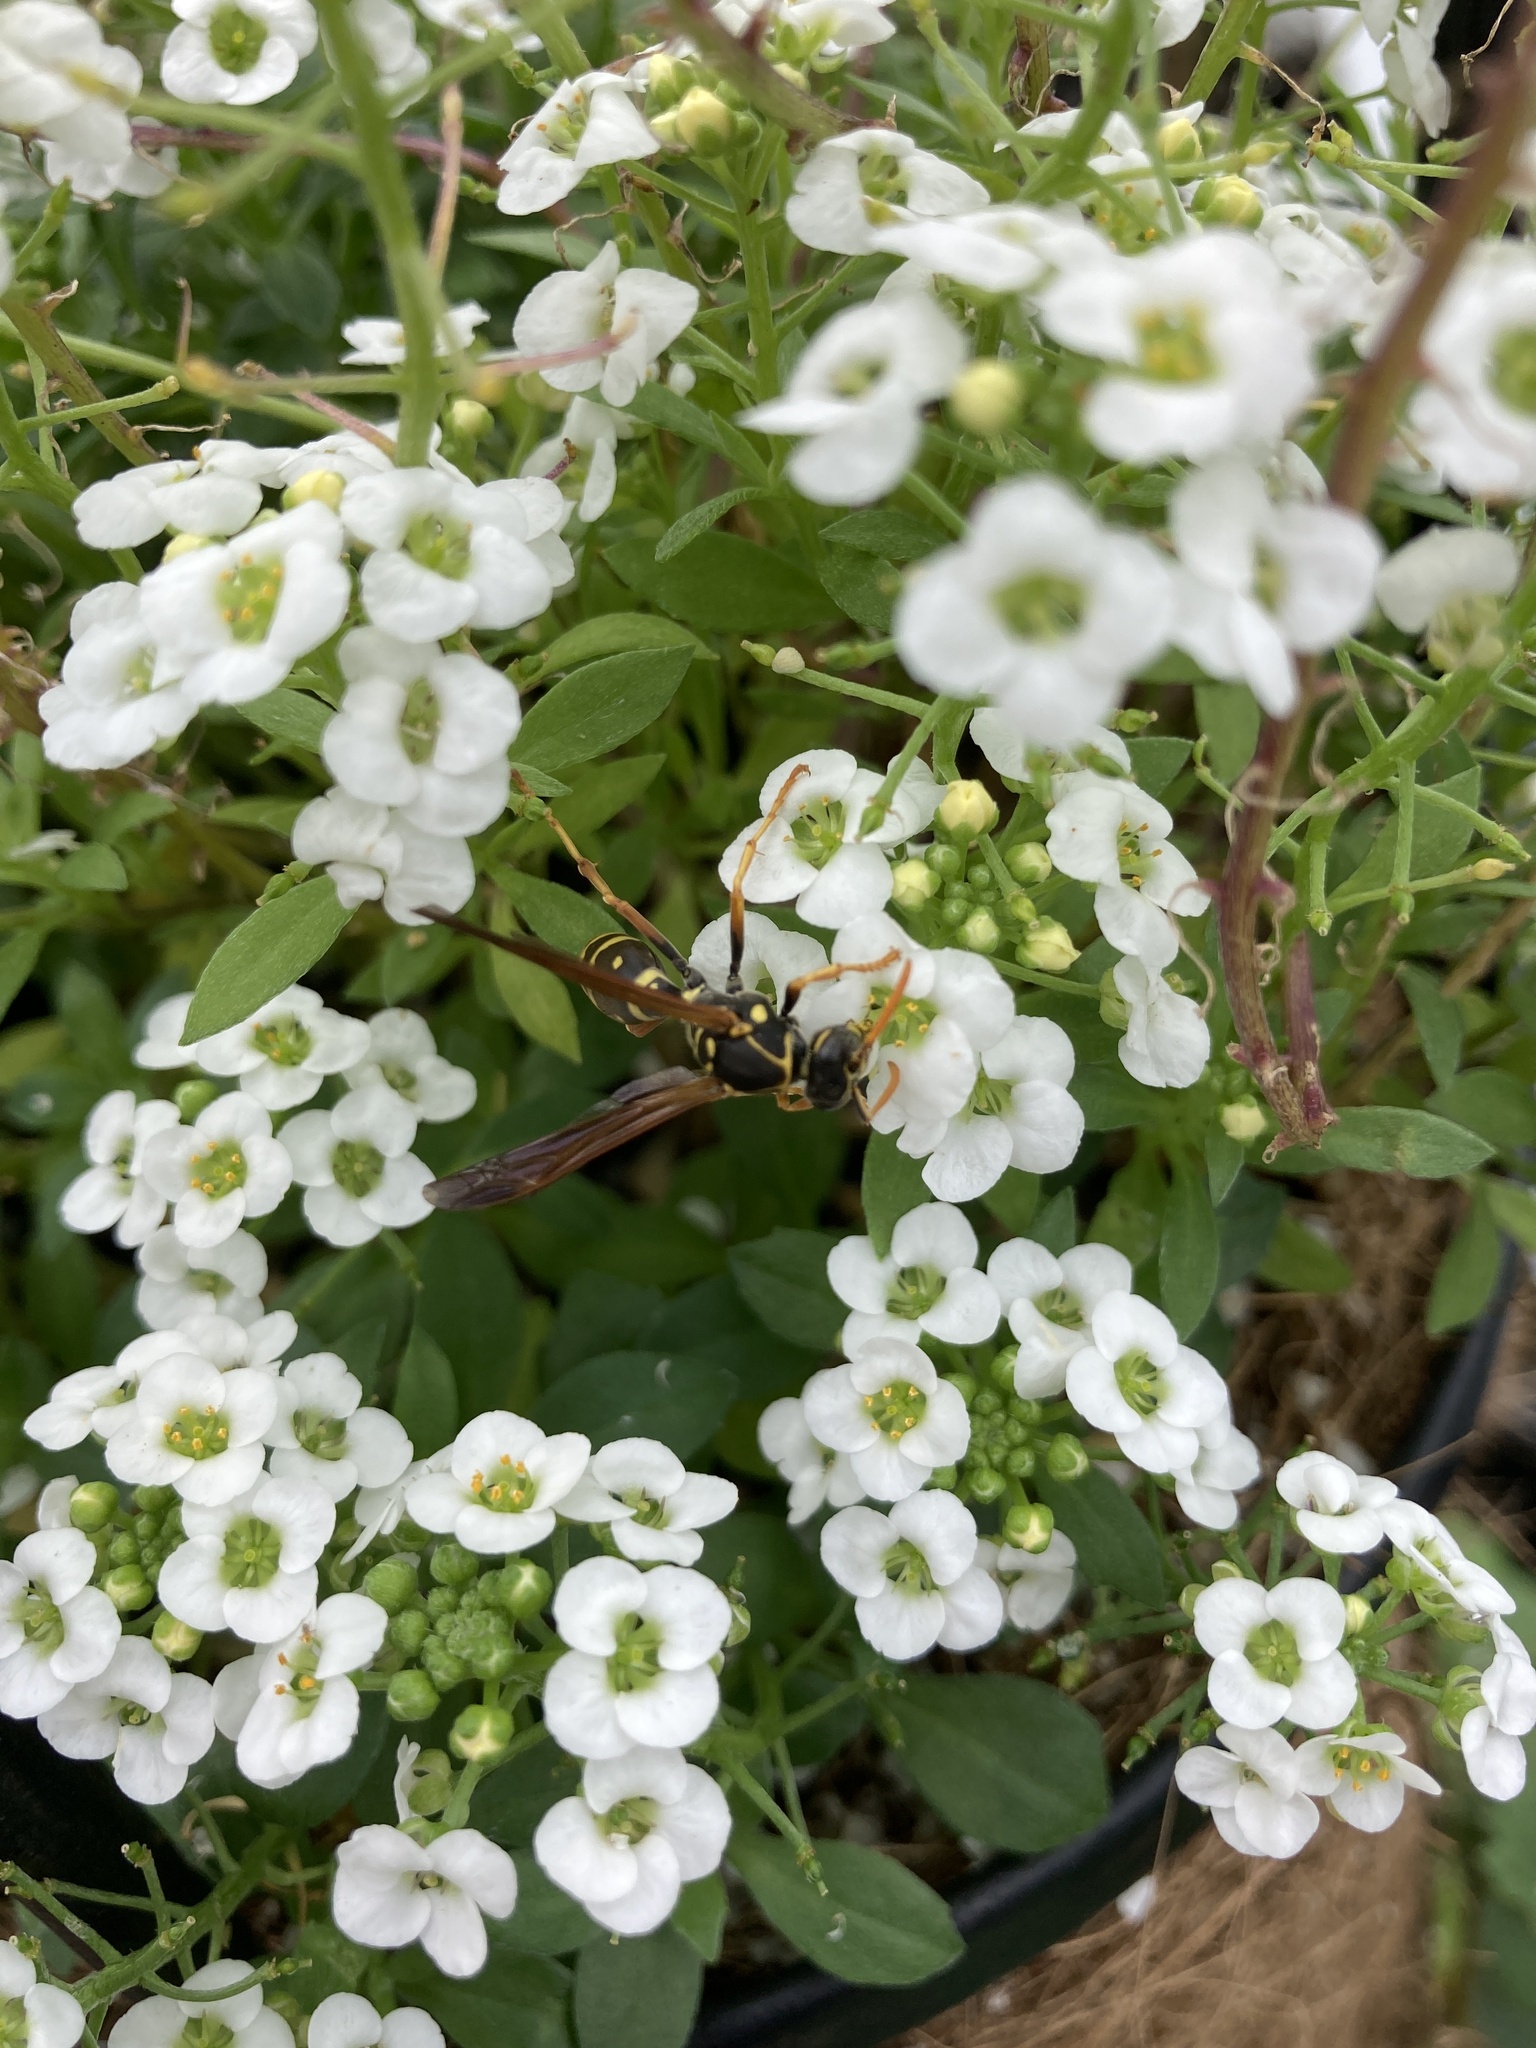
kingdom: Animalia
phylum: Arthropoda
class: Insecta
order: Hymenoptera
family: Eumenidae
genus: Polistes
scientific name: Polistes chinensis
